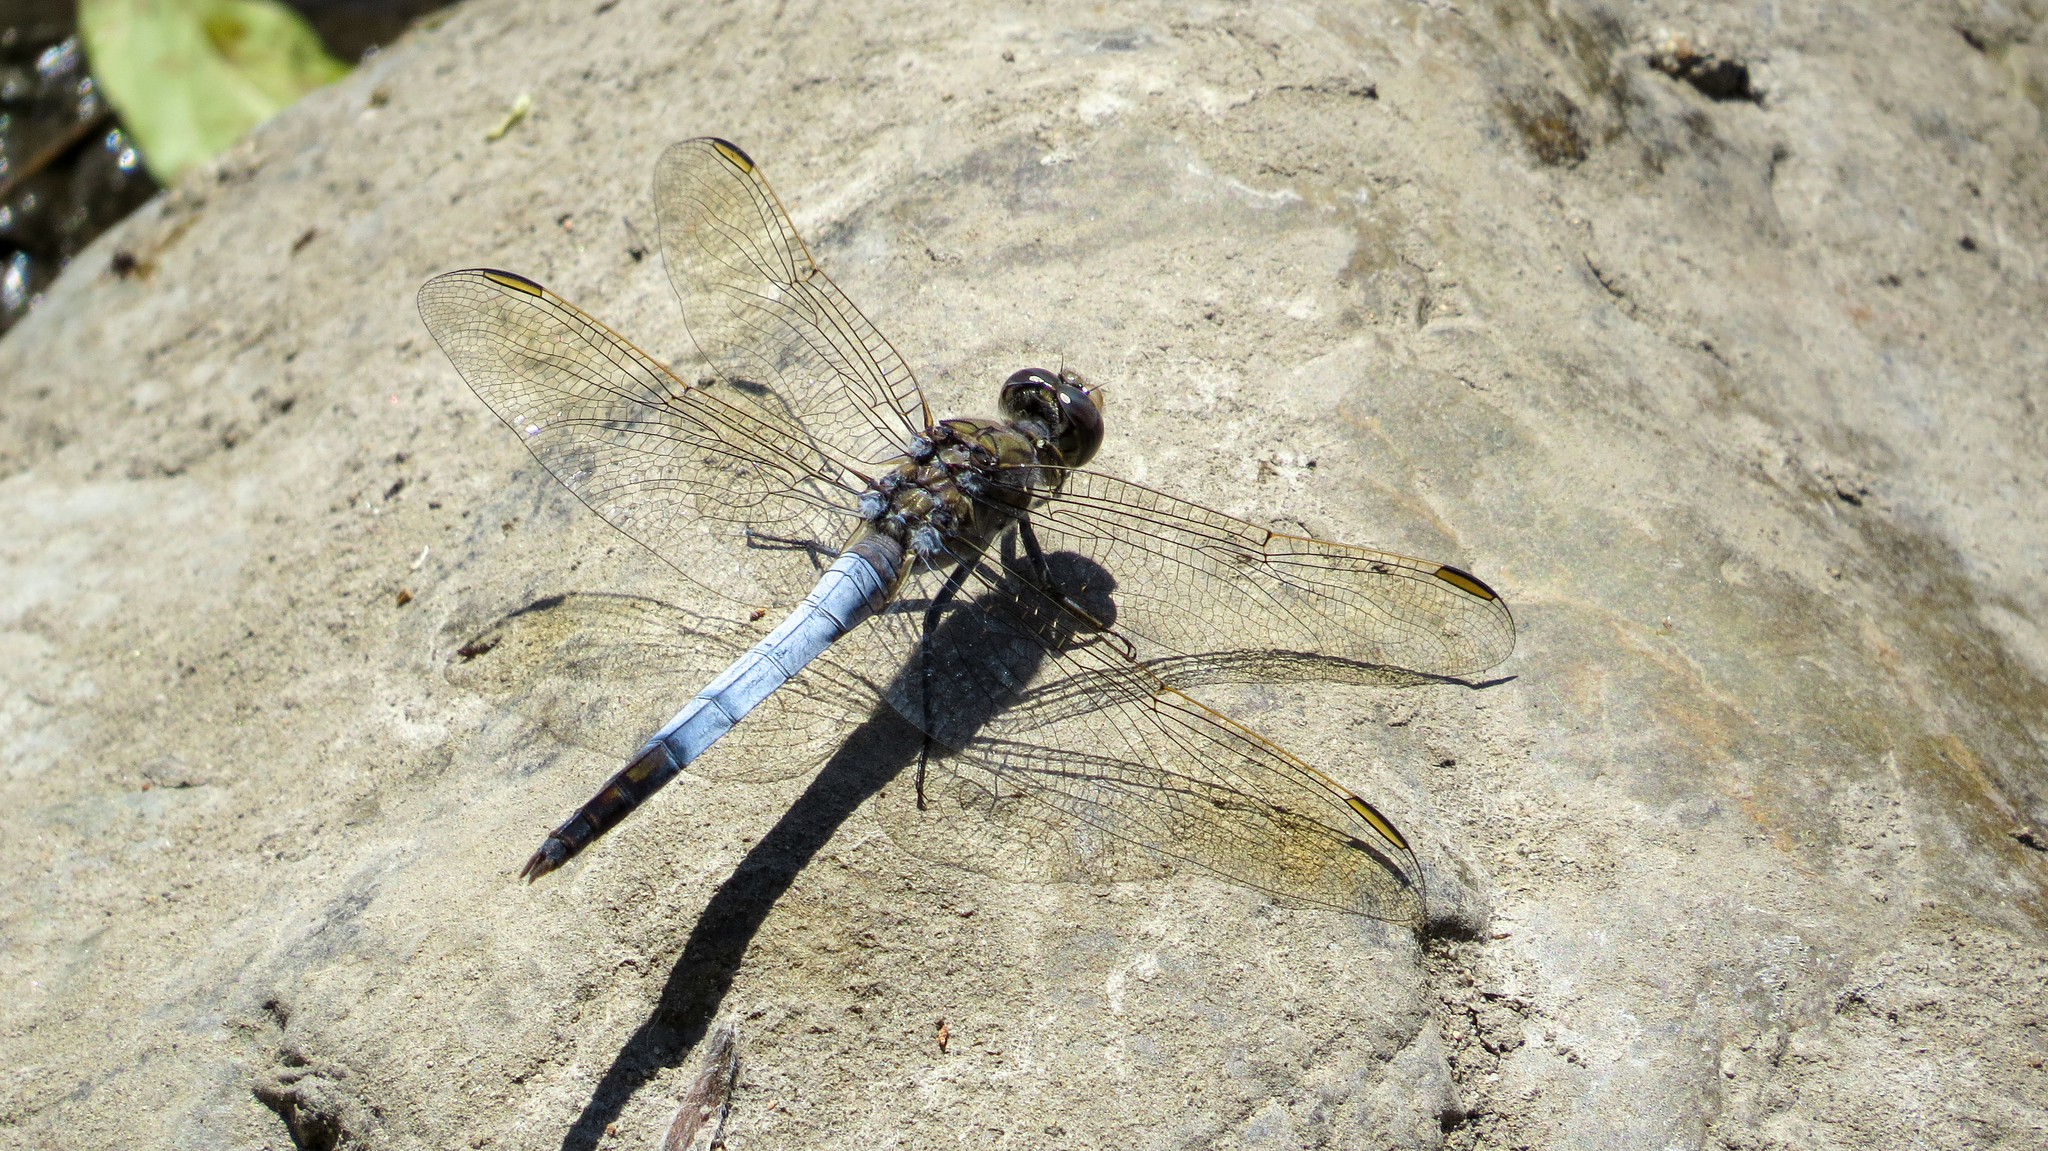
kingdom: Animalia
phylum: Arthropoda
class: Insecta
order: Odonata
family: Libellulidae
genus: Orthetrum
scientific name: Orthetrum caledonicum
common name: Blue skimmer
